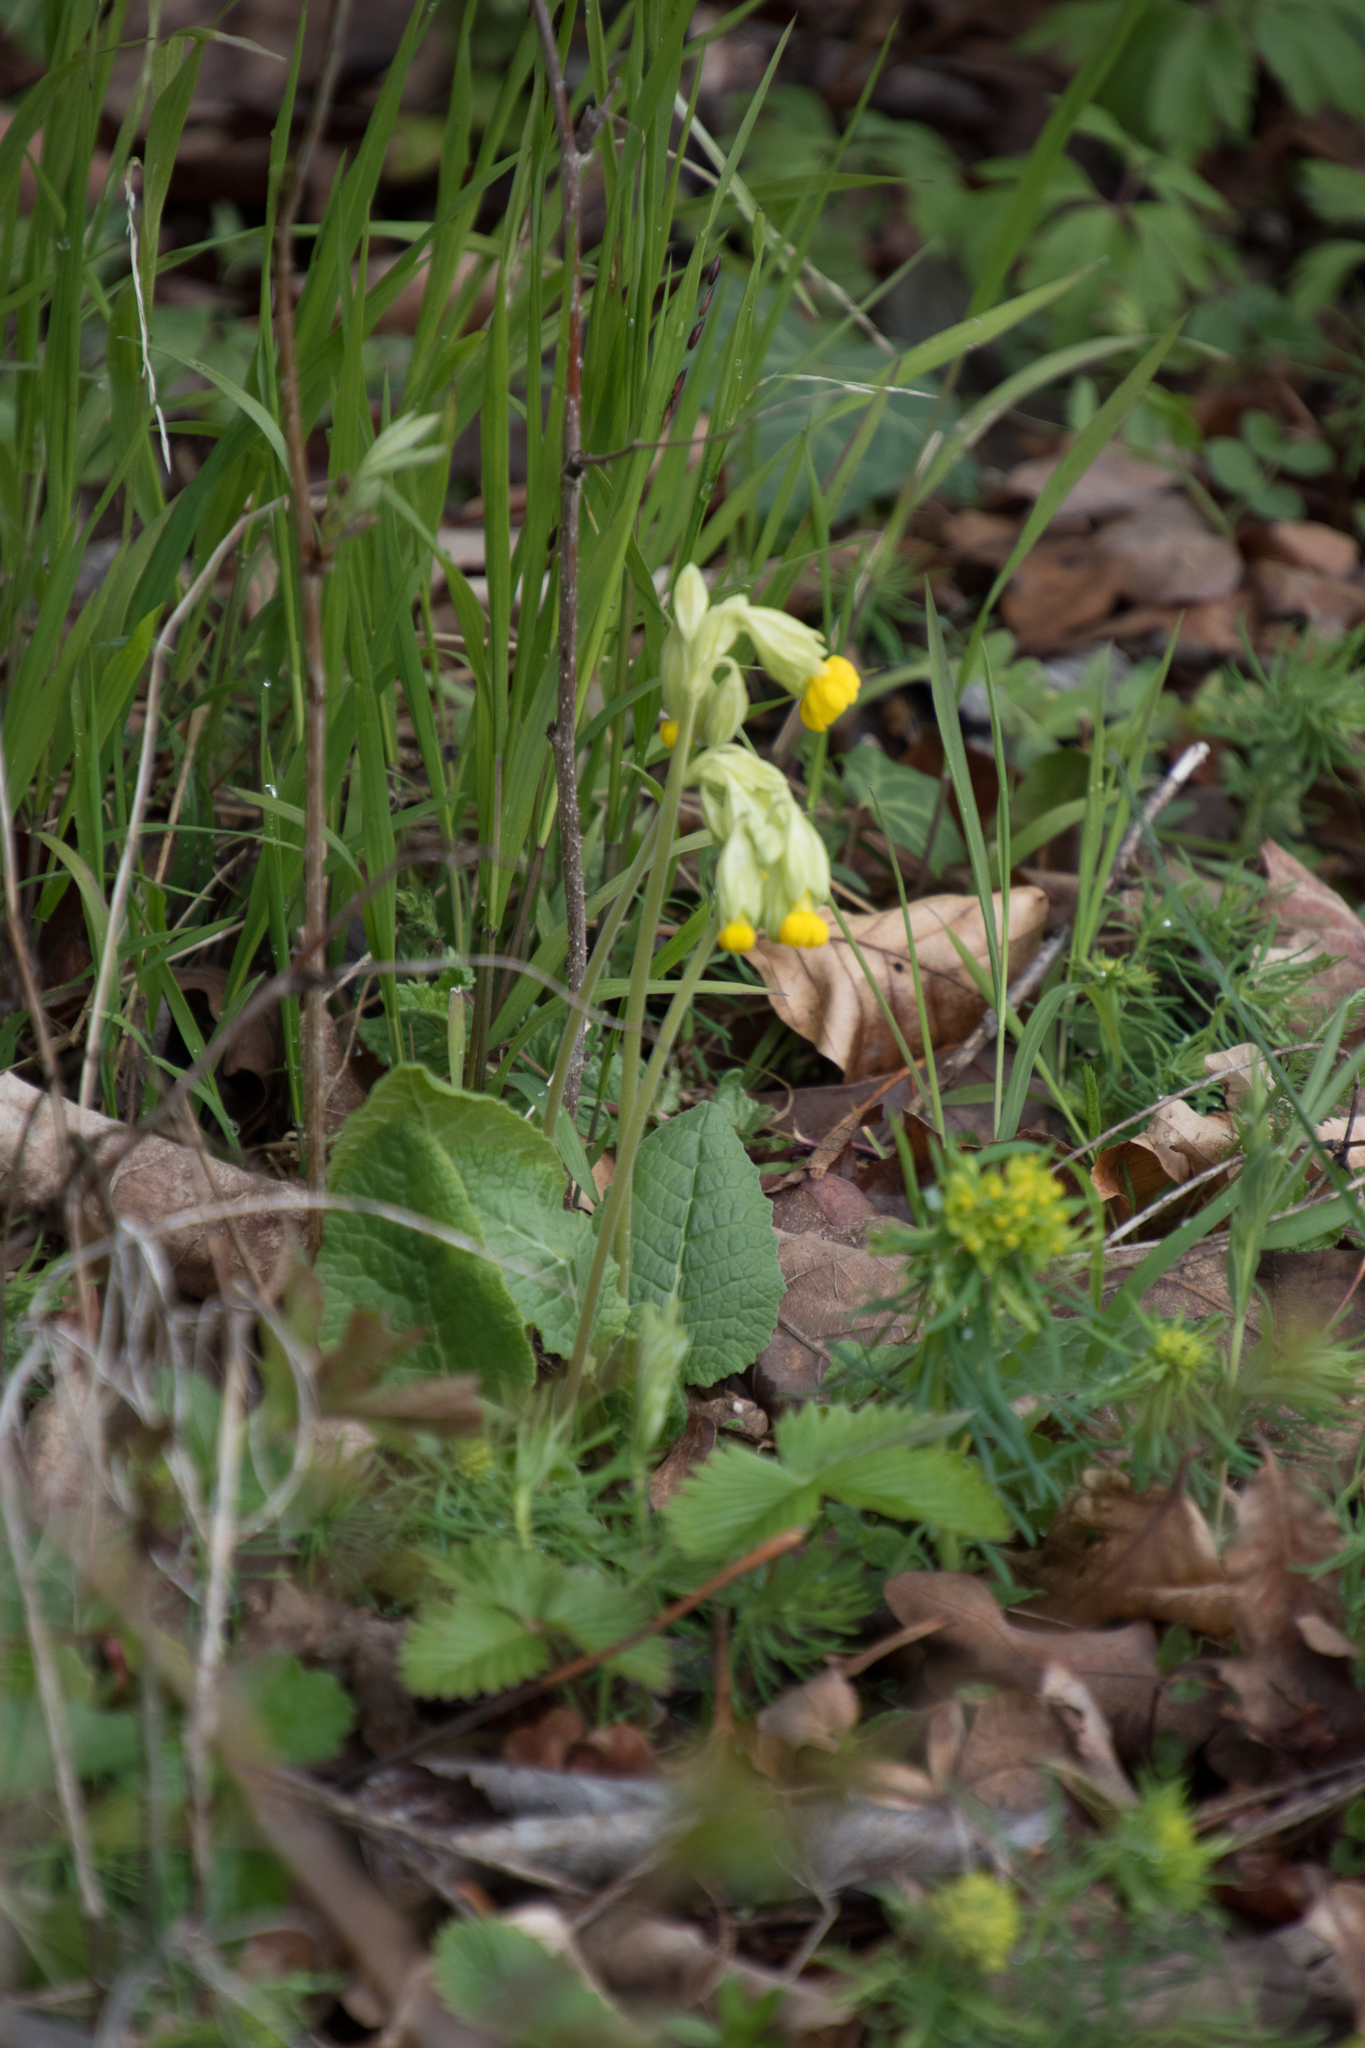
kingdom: Plantae
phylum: Tracheophyta
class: Magnoliopsida
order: Ericales
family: Primulaceae
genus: Primula
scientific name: Primula veris
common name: Cowslip
